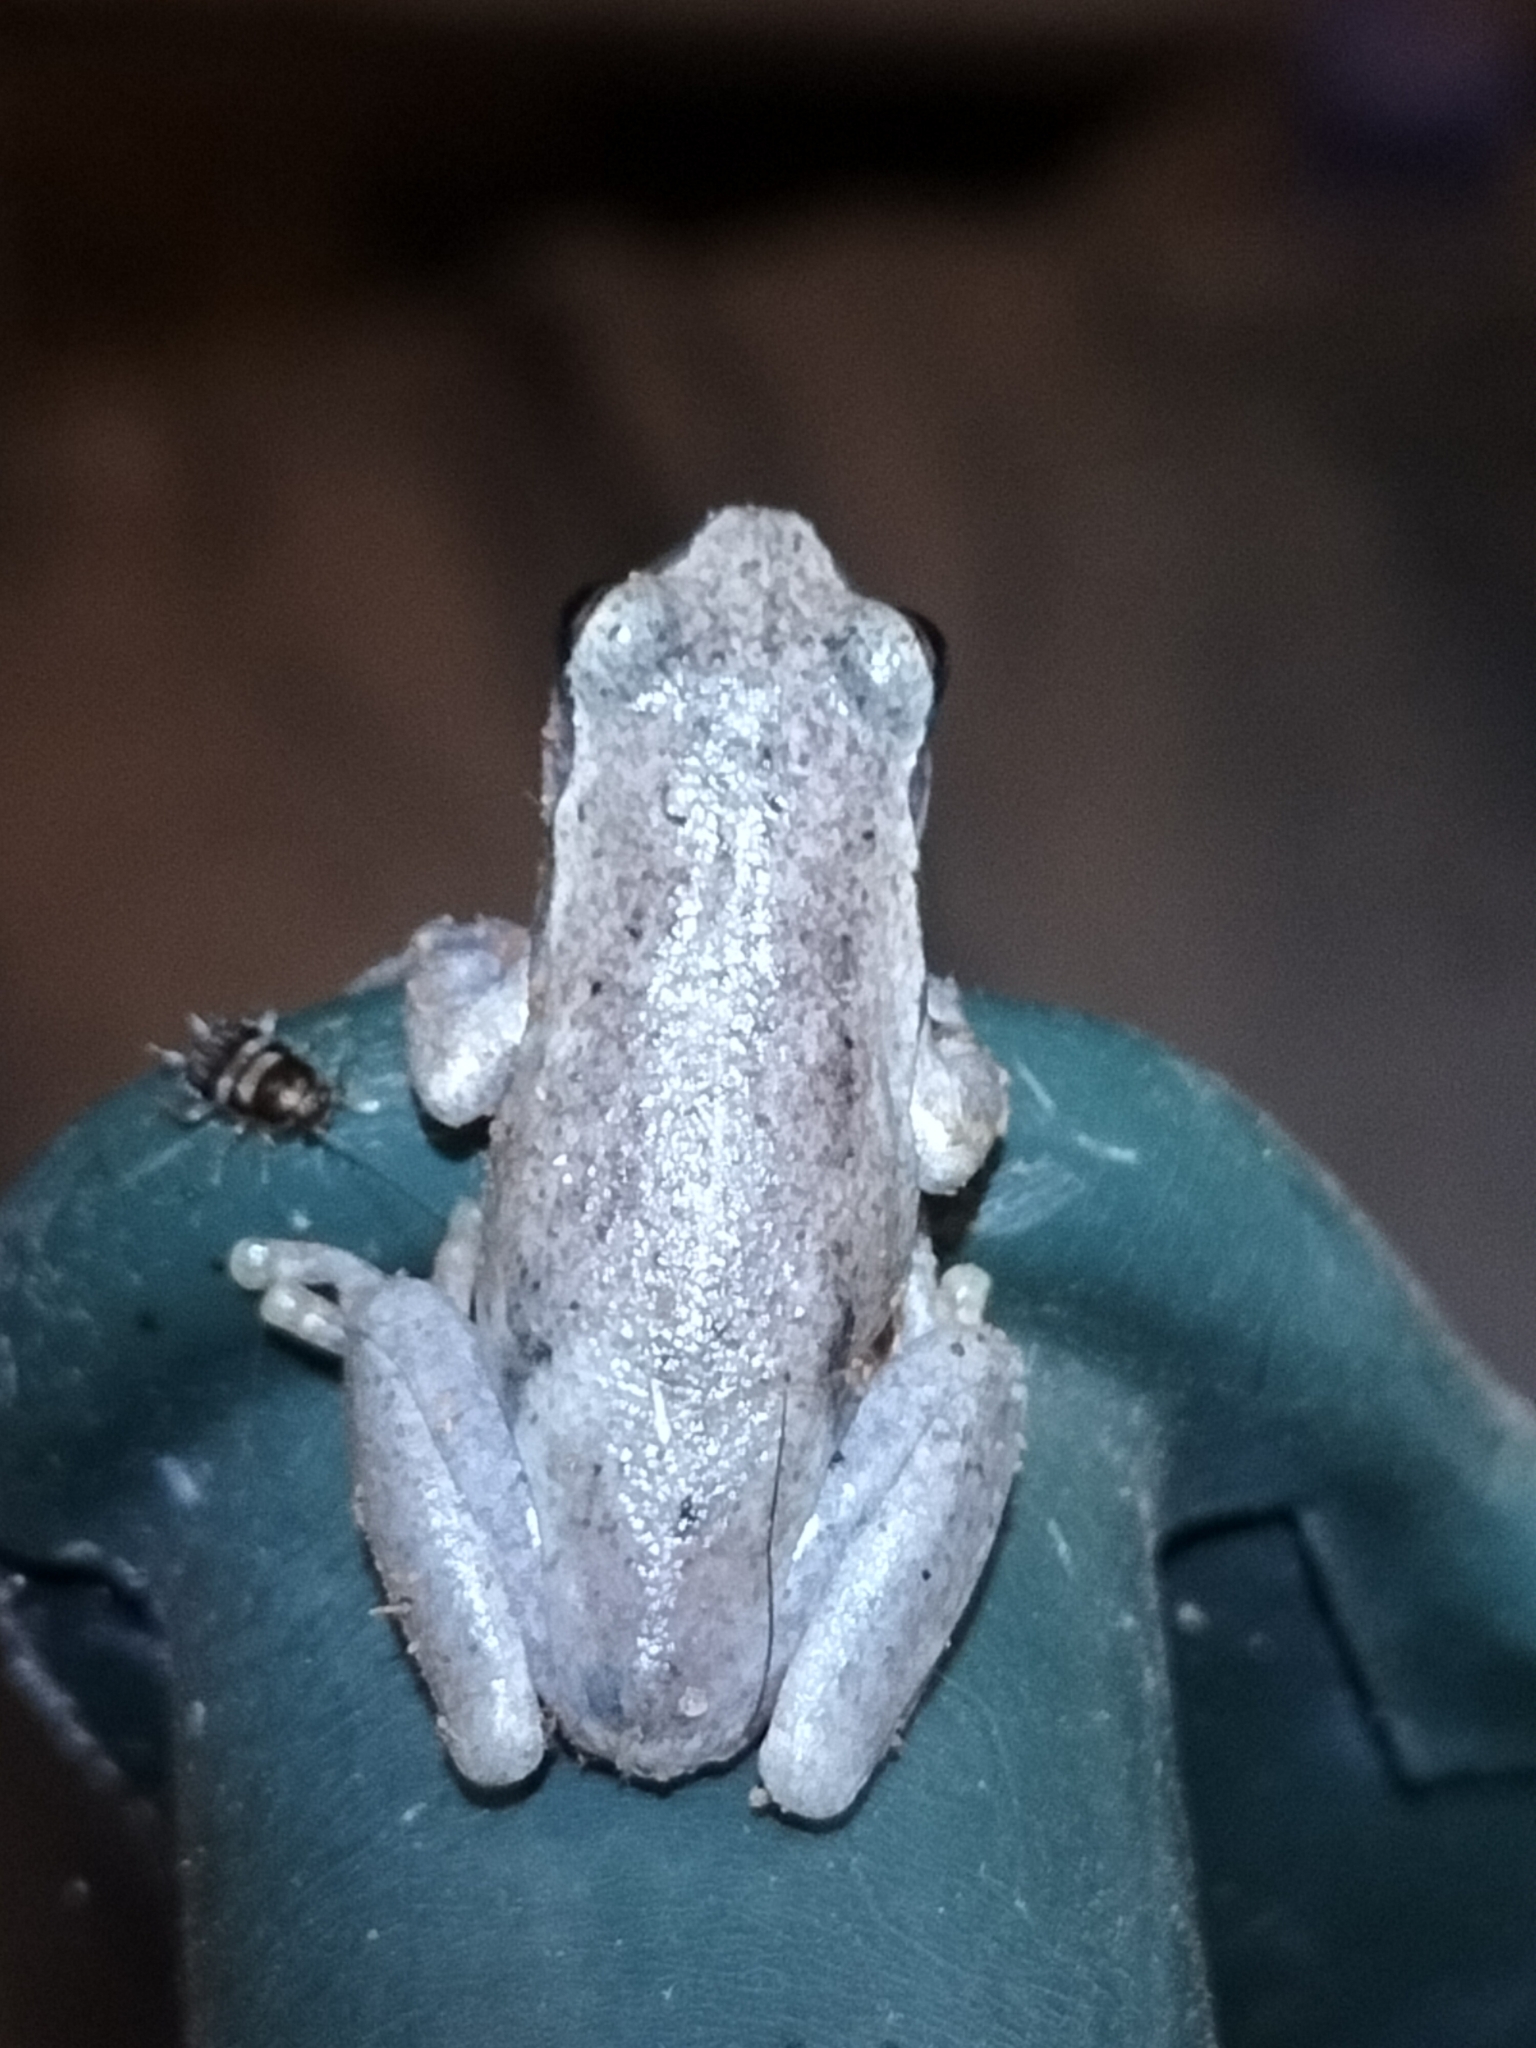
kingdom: Animalia
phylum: Chordata
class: Amphibia
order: Anura
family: Pelodryadidae
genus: Litoria
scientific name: Litoria rubella
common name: Desert tree frog
